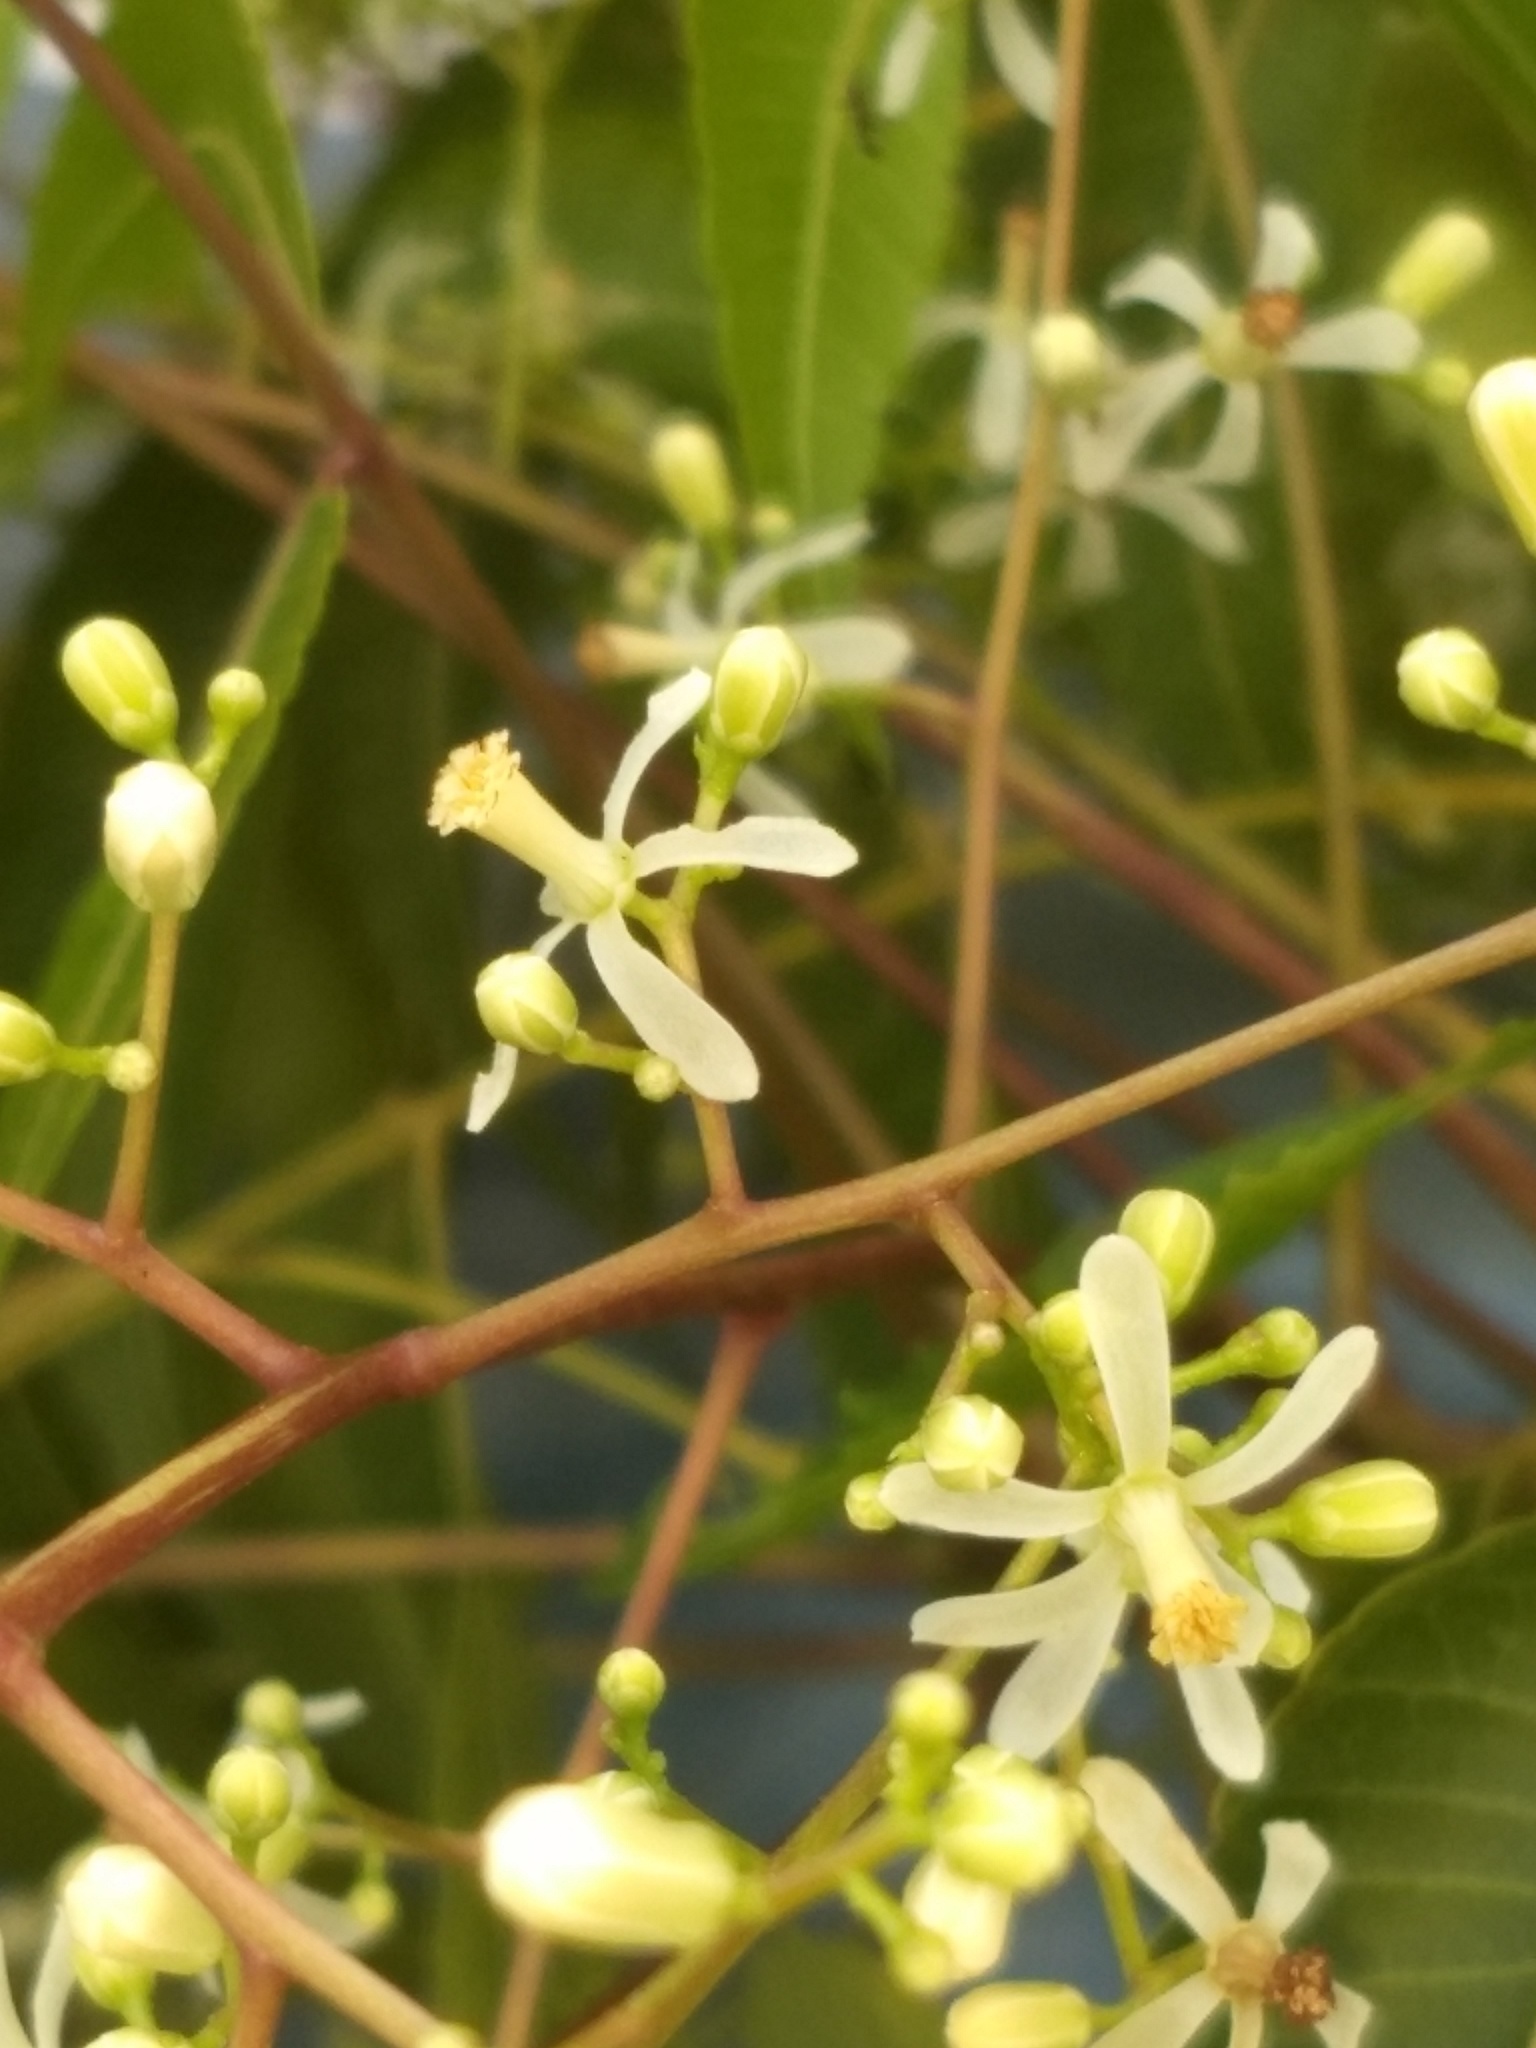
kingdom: Plantae
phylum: Tracheophyta
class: Magnoliopsida
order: Sapindales
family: Meliaceae
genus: Azadirachta
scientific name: Azadirachta indica
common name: Neem
